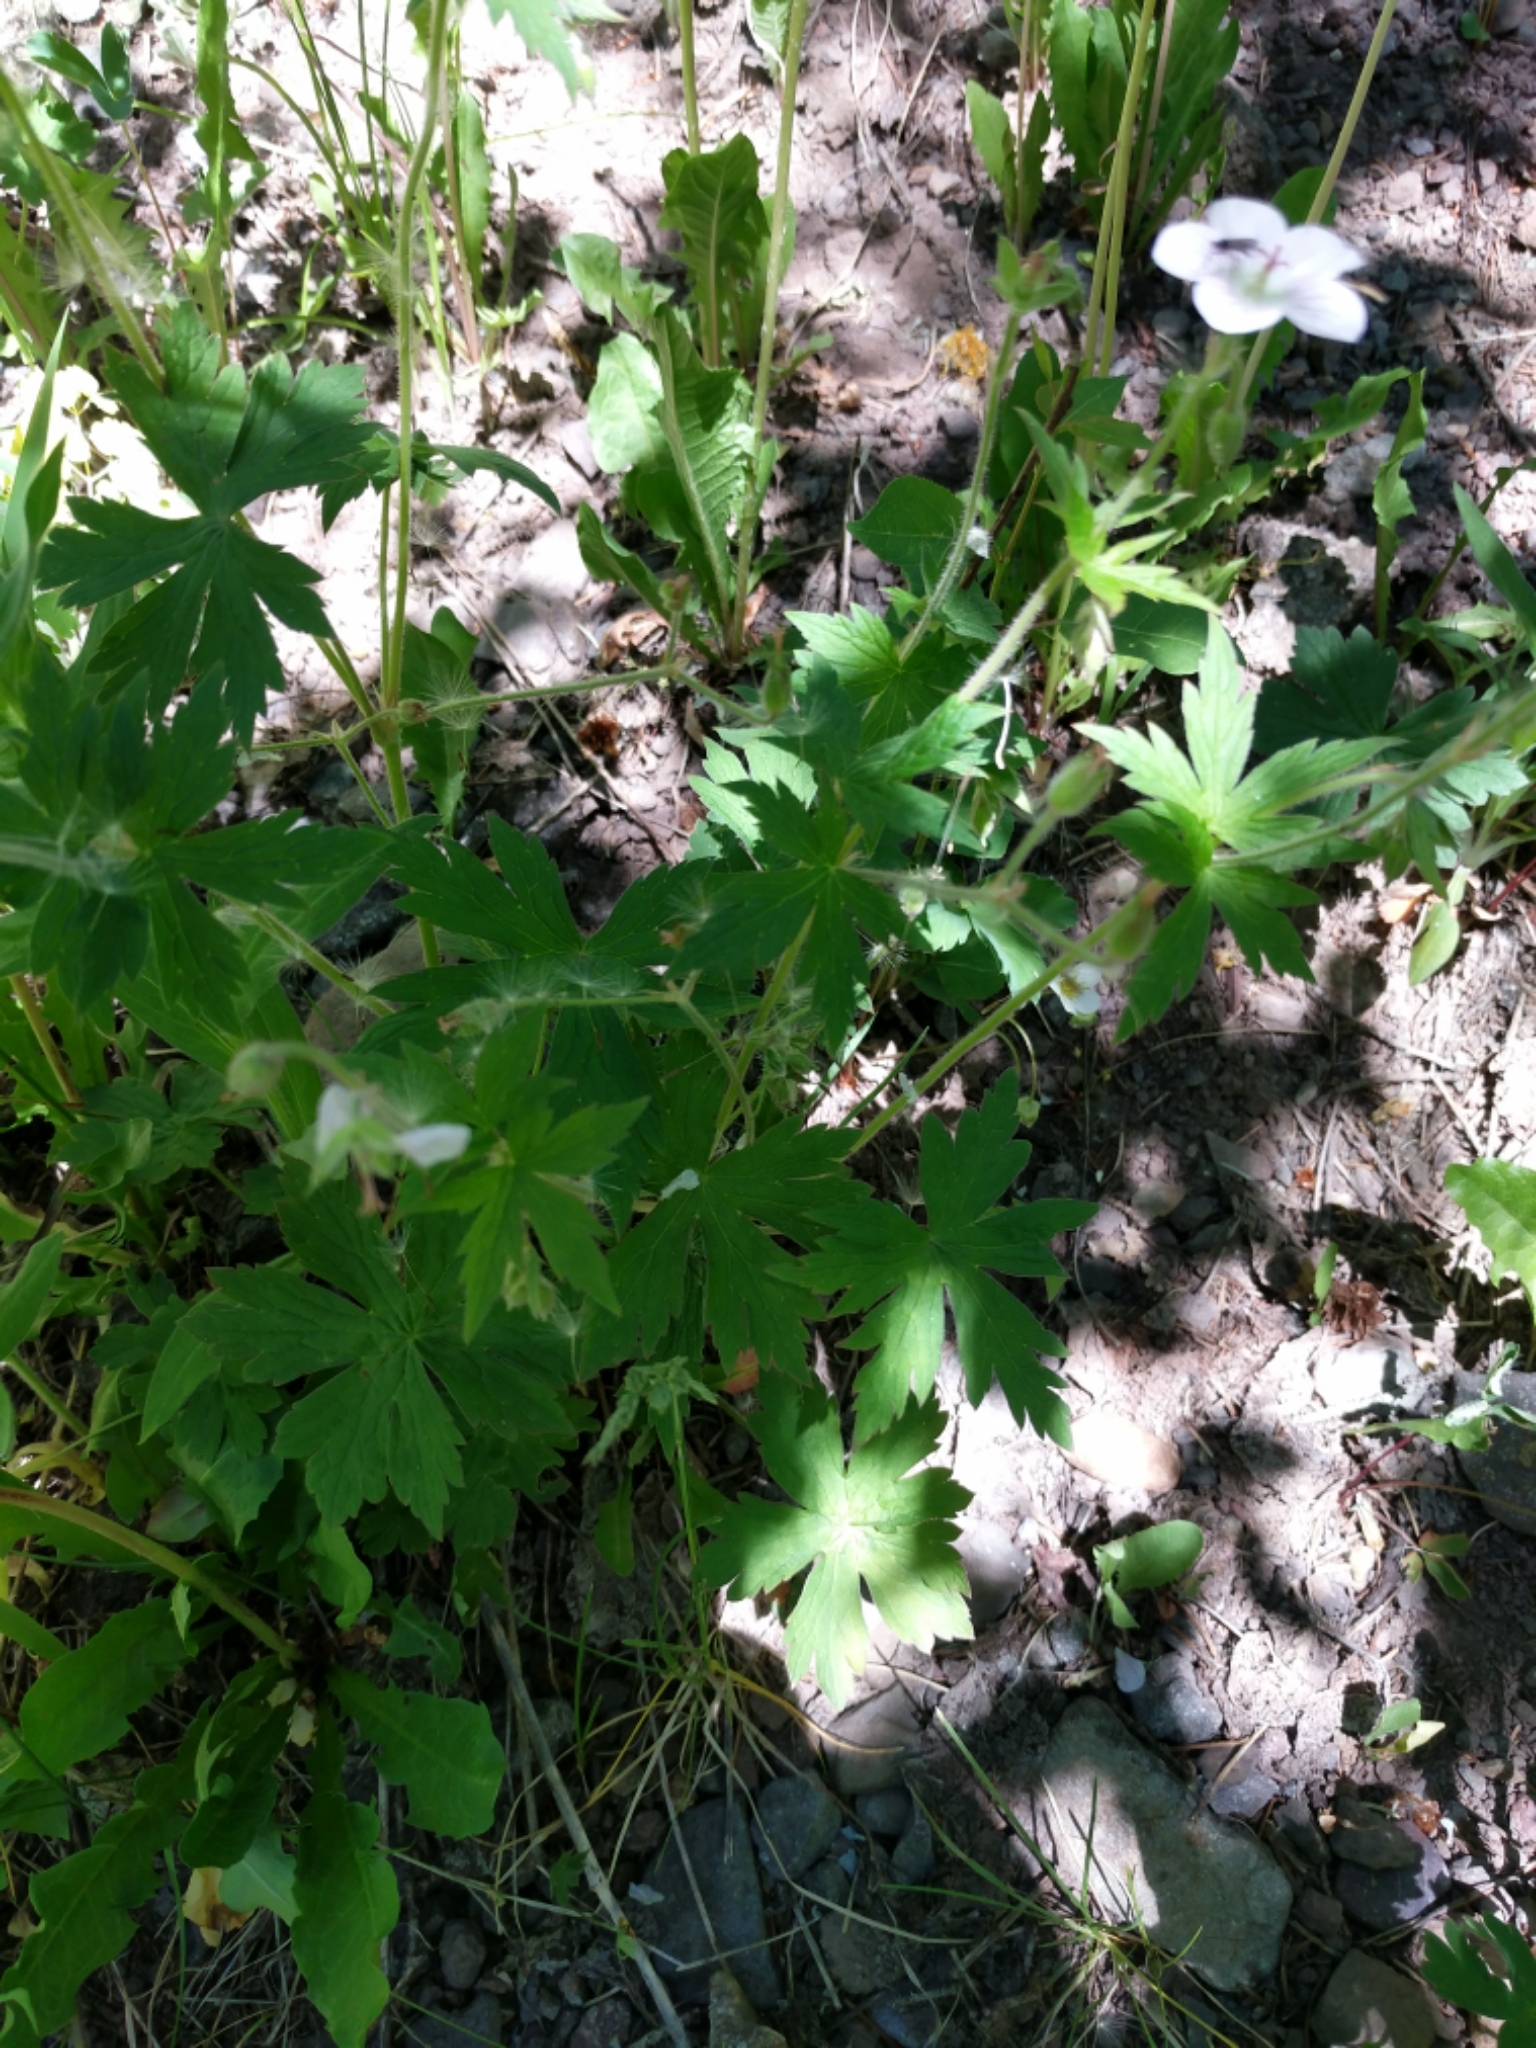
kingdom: Plantae
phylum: Tracheophyta
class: Magnoliopsida
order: Geraniales
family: Geraniaceae
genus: Geranium
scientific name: Geranium richardsonii
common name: Richardson's crane's-bill
